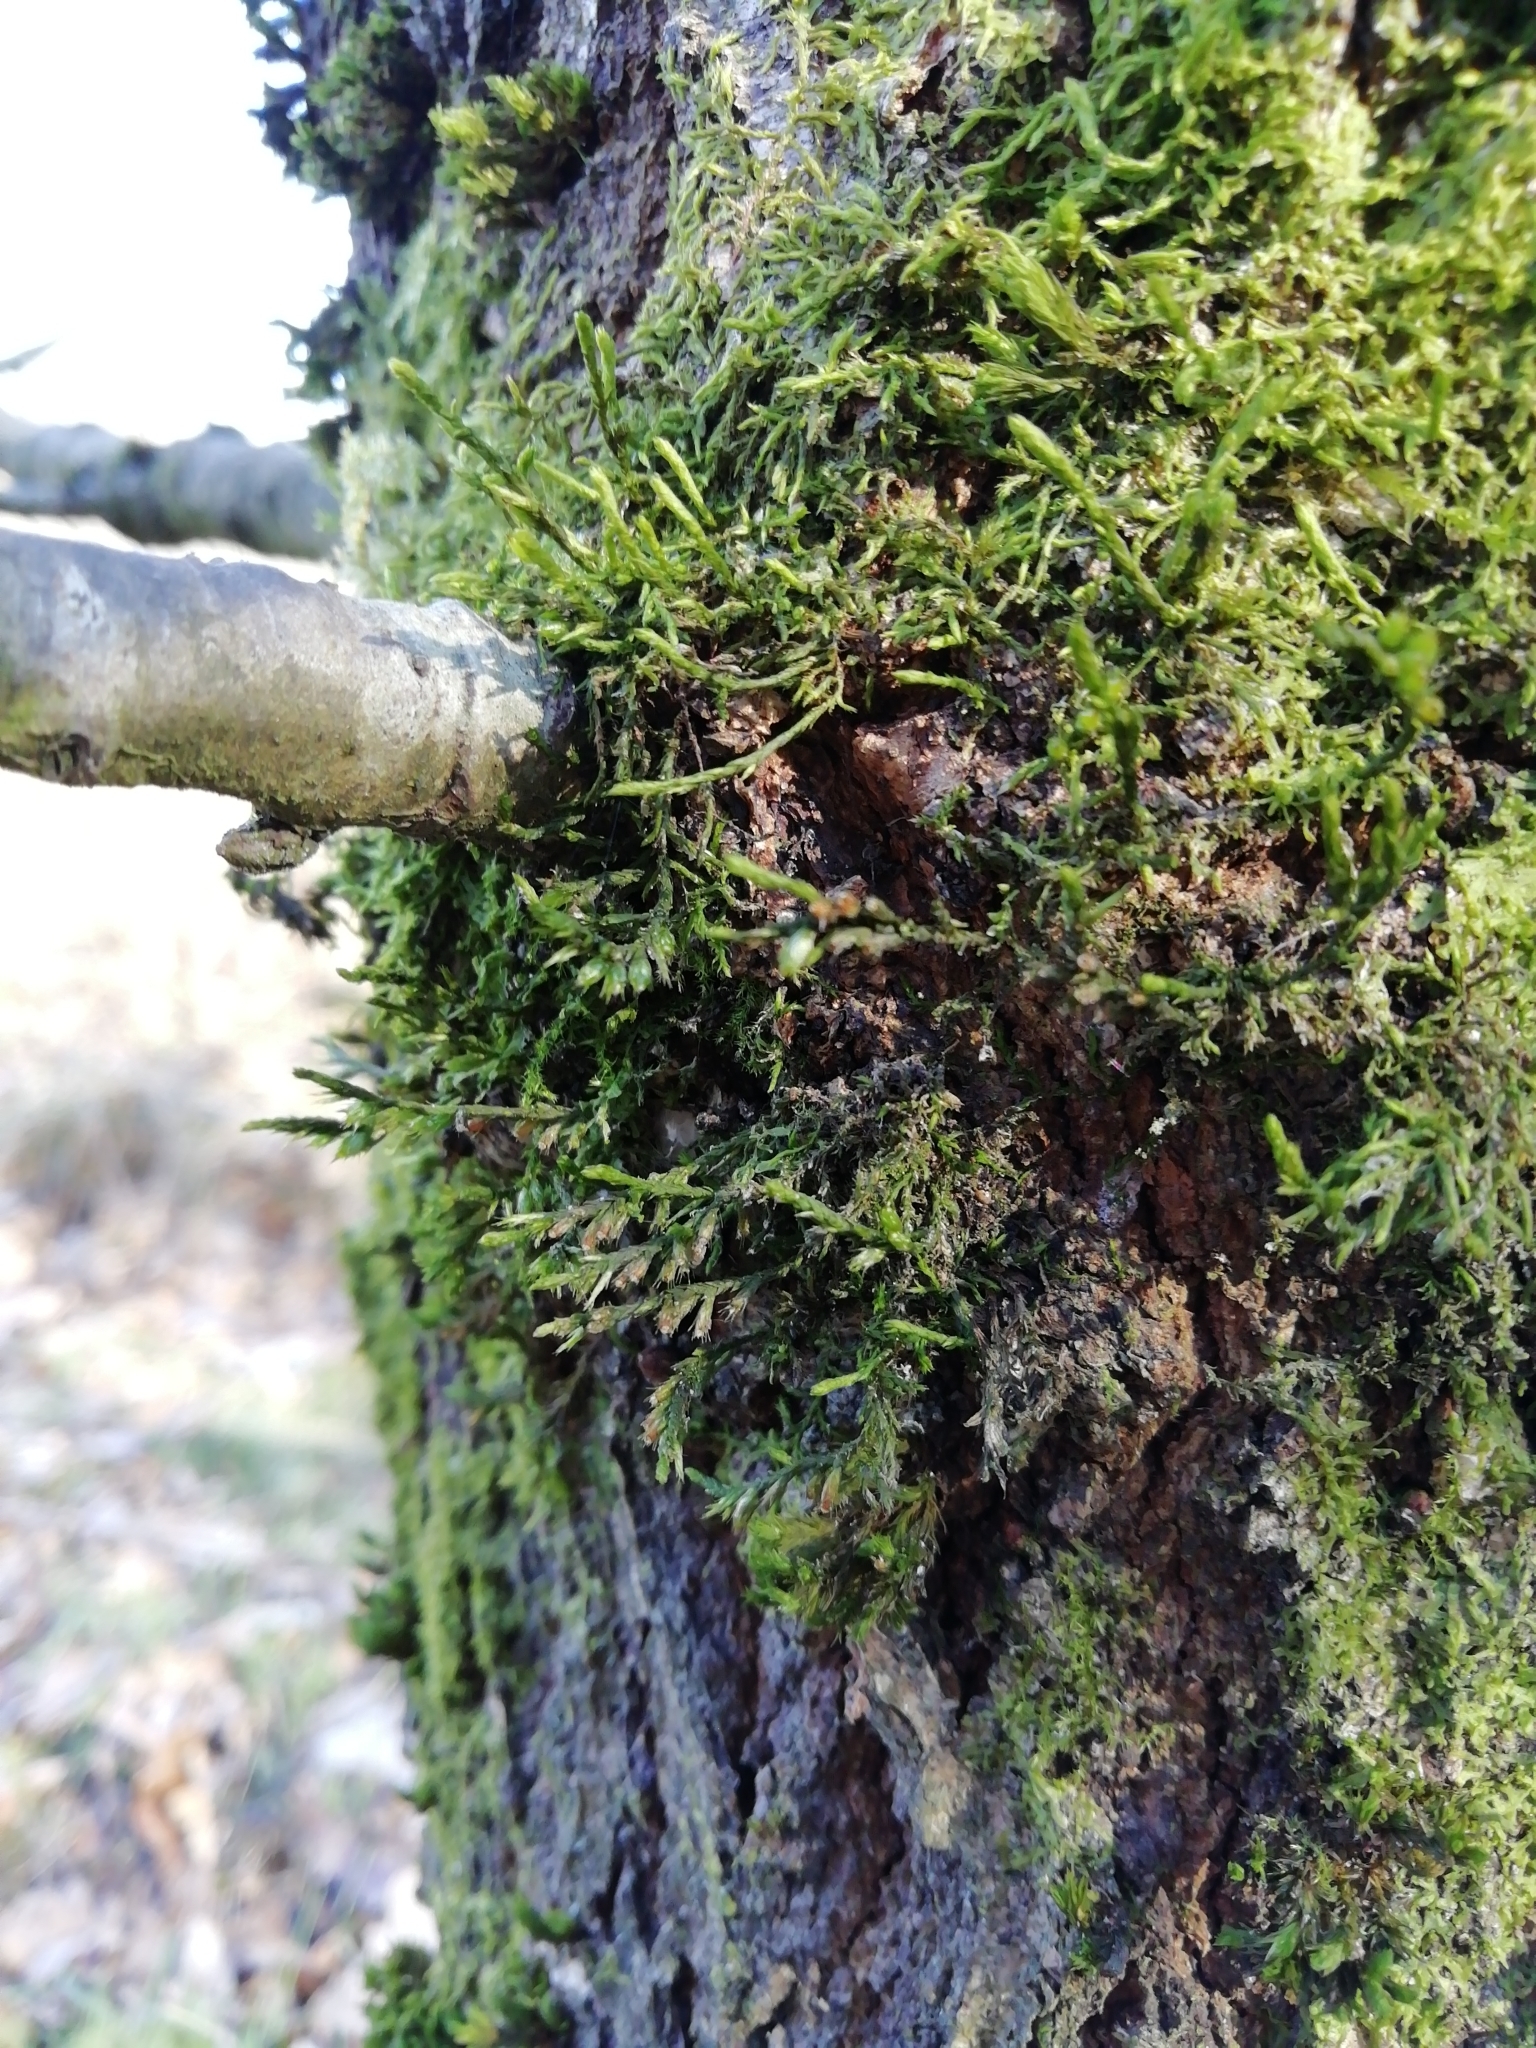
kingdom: Plantae
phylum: Bryophyta
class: Bryopsida
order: Hypnales
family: Cryphaeaceae
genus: Cryphaea
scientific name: Cryphaea heteromalla
